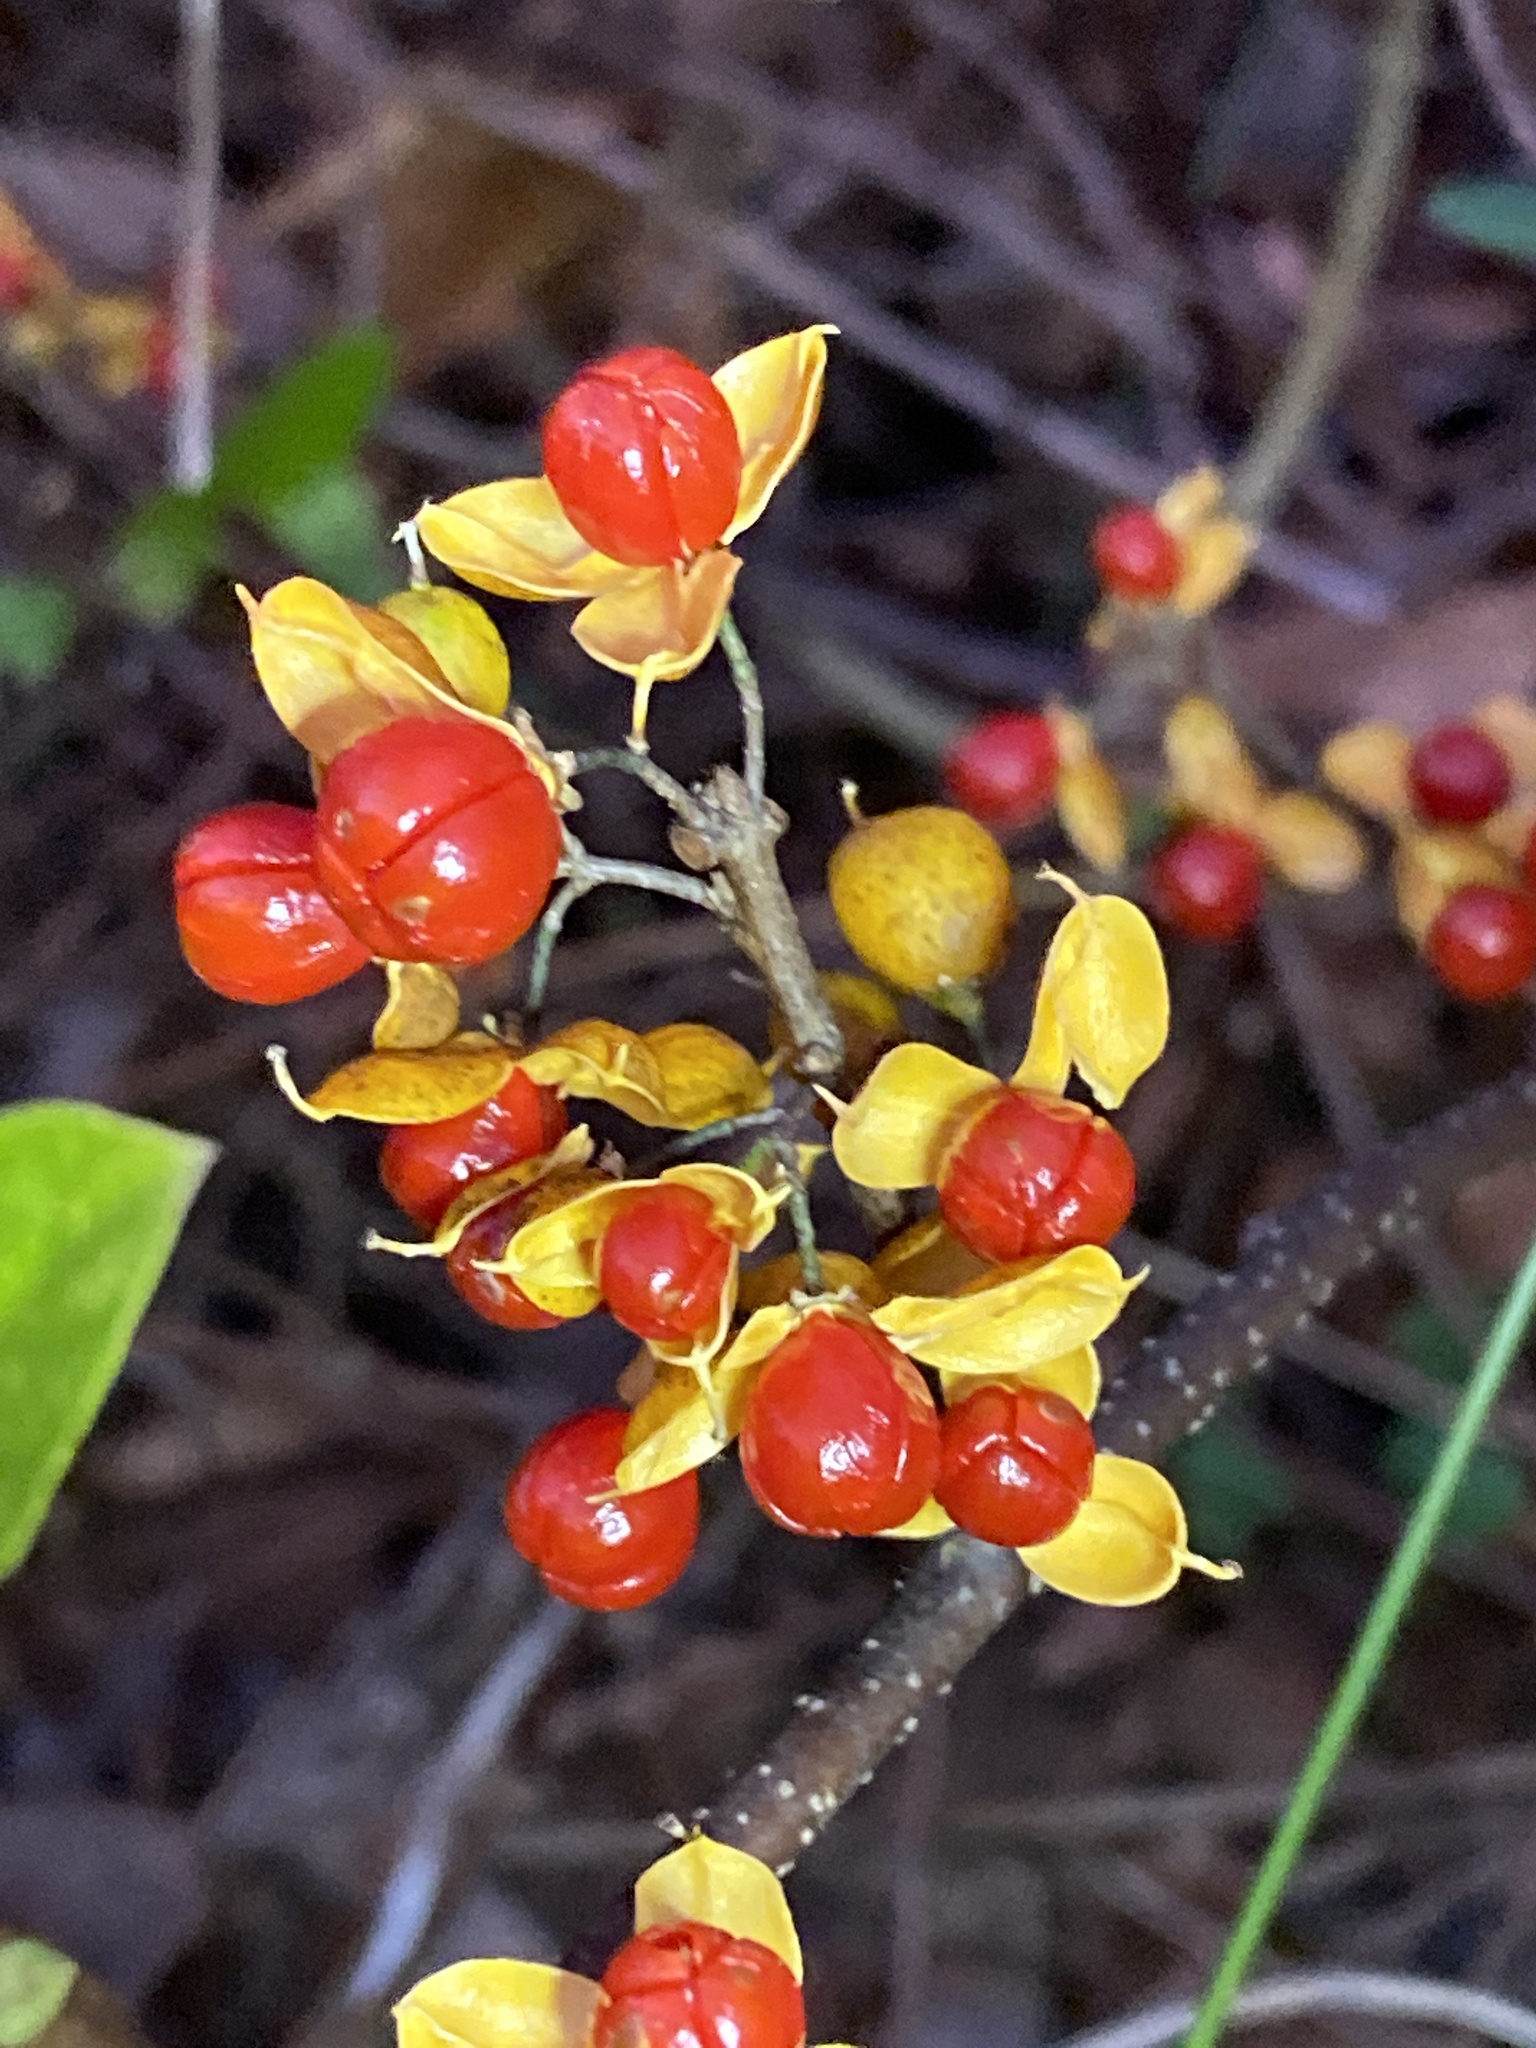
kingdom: Plantae
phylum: Tracheophyta
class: Magnoliopsida
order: Celastrales
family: Celastraceae
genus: Celastrus
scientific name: Celastrus orbiculatus
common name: Oriental bittersweet
